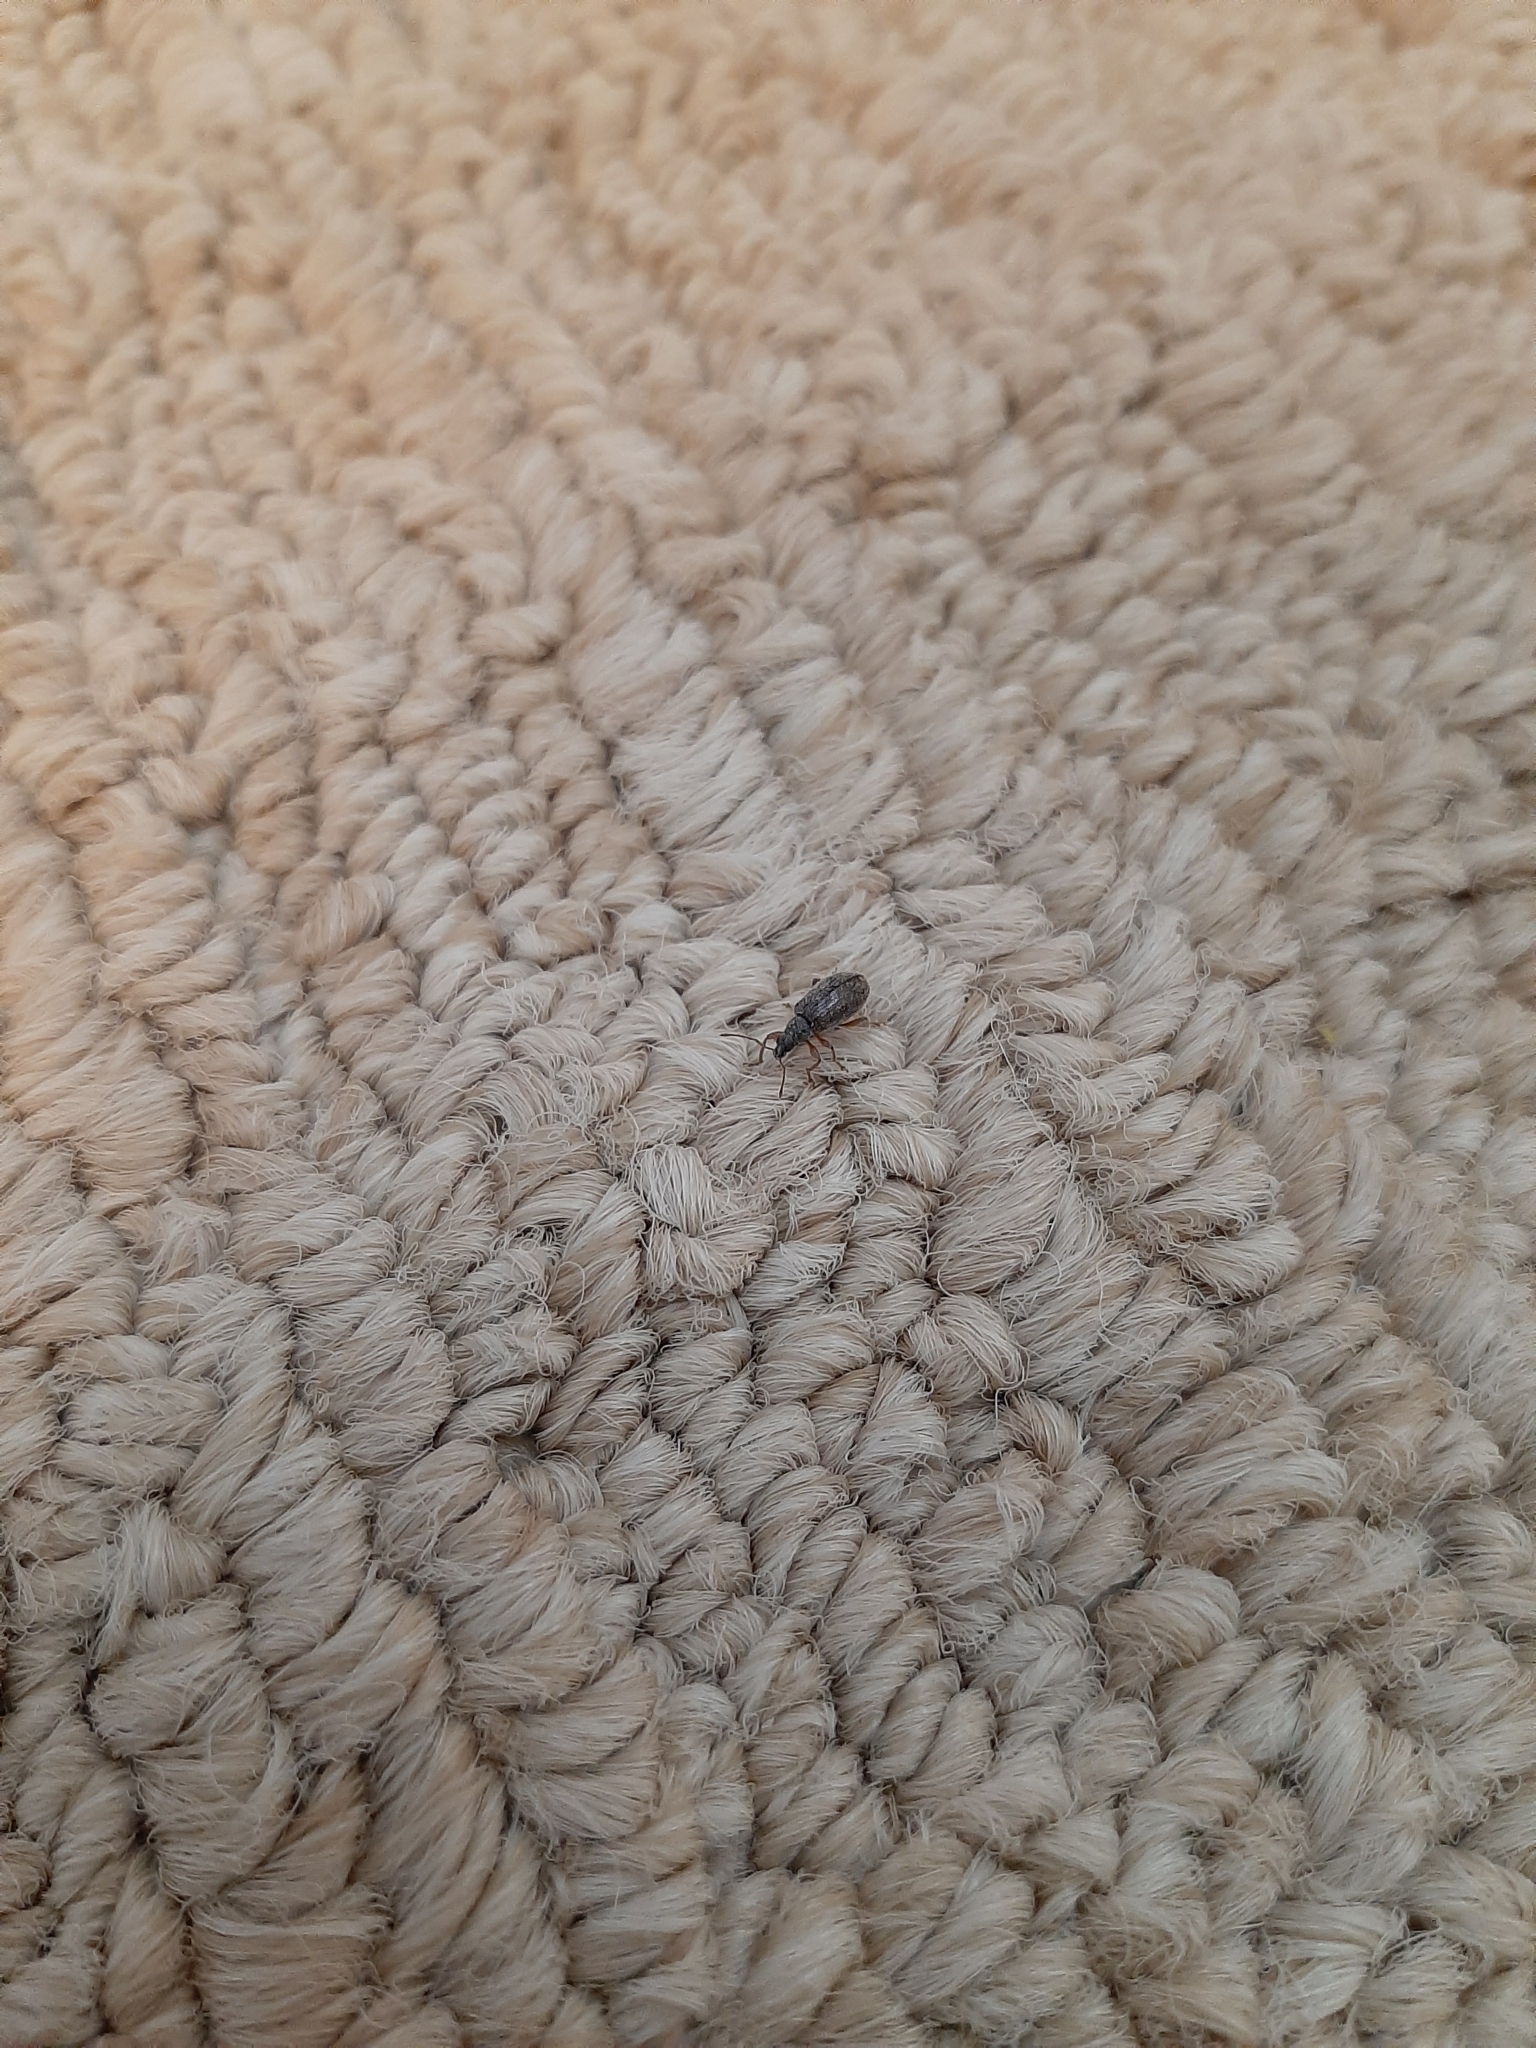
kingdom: Animalia
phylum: Arthropoda
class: Insecta
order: Coleoptera
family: Curculionidae
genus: Phyllobius
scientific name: Phyllobius oblongus
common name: Brown leaf weevil
